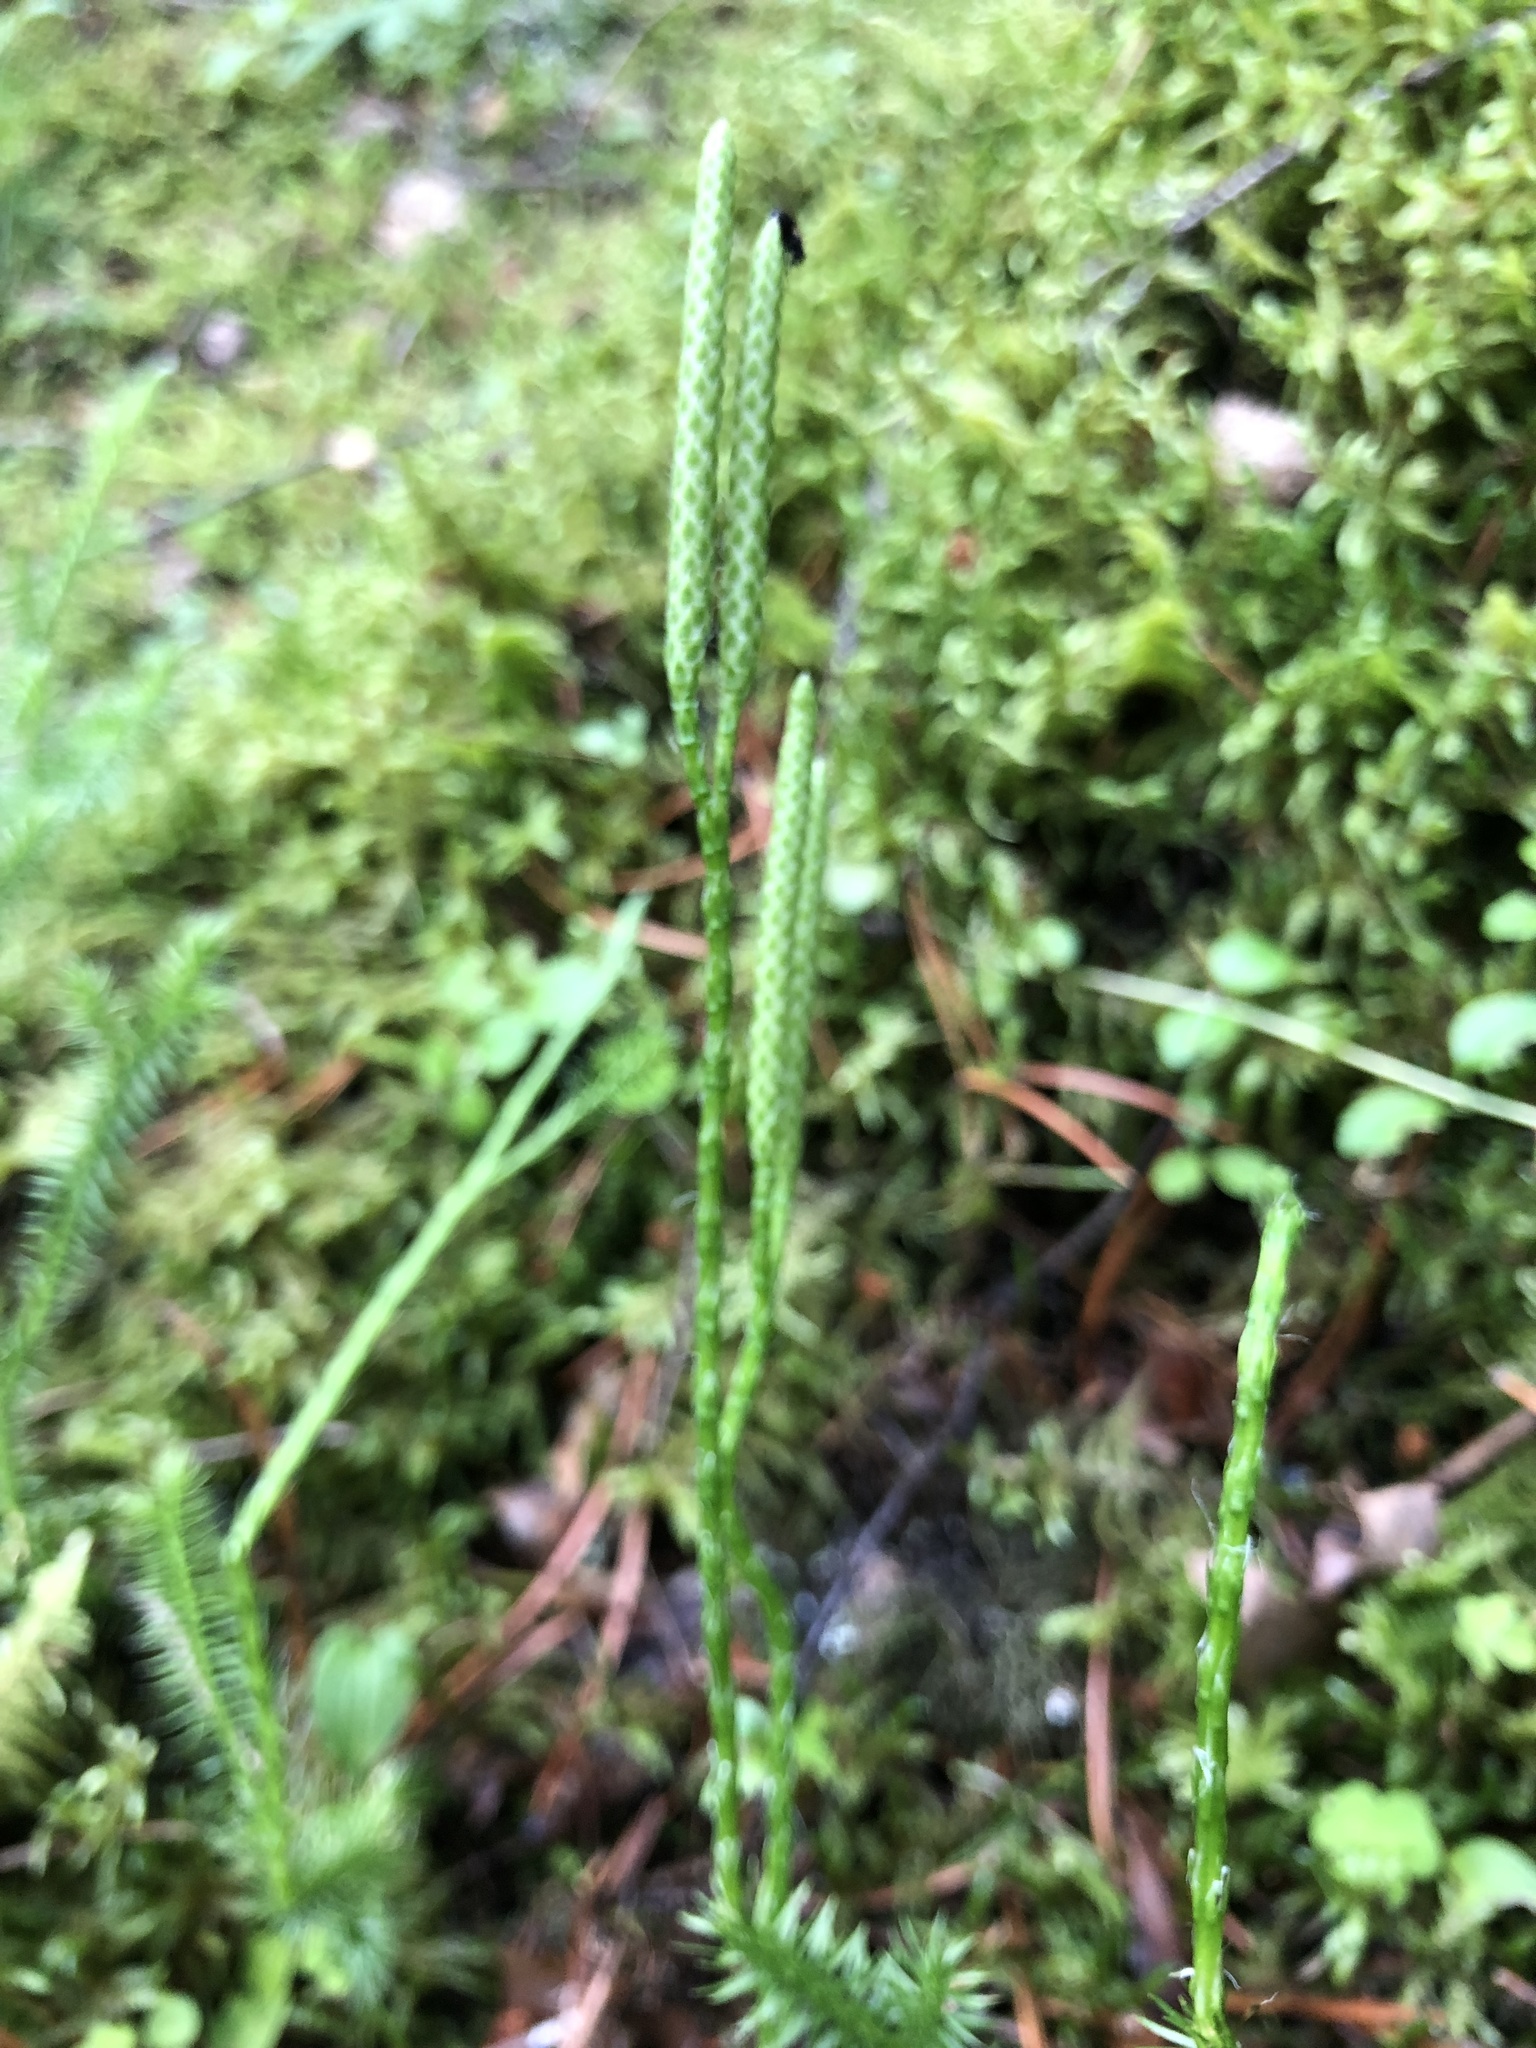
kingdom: Plantae
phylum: Tracheophyta
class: Lycopodiopsida
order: Lycopodiales
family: Lycopodiaceae
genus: Lycopodium
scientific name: Lycopodium clavatum
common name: Stag's-horn clubmoss
